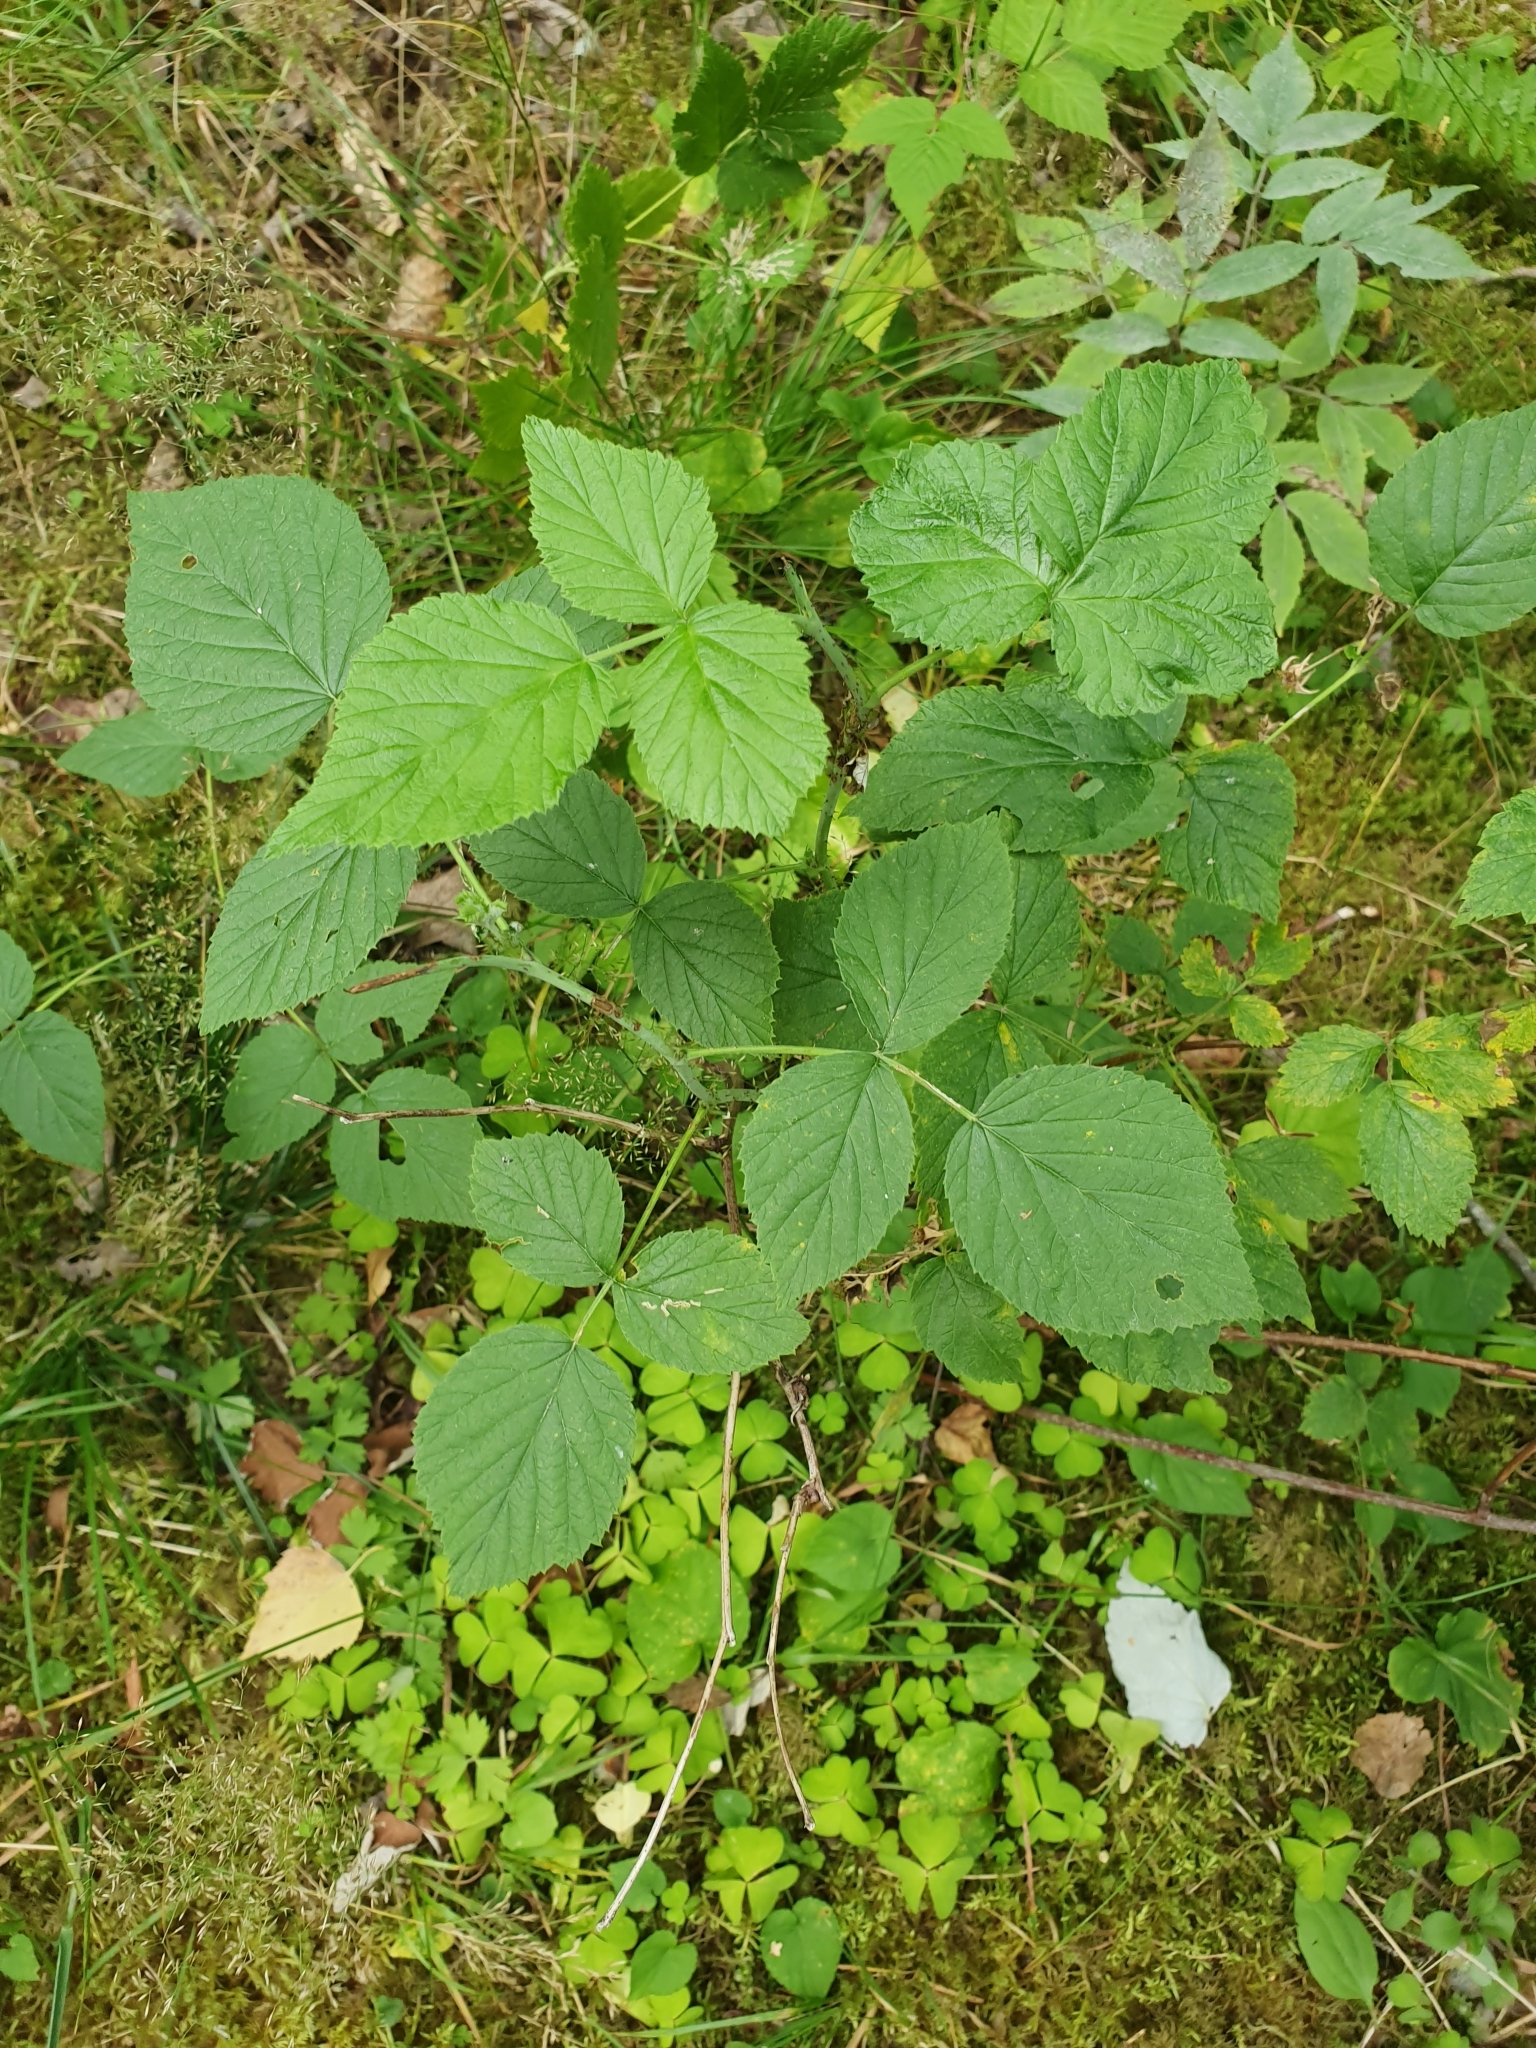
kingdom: Plantae
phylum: Tracheophyta
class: Magnoliopsida
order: Rosales
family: Rosaceae
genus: Rubus
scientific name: Rubus idaeus
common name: Raspberry
